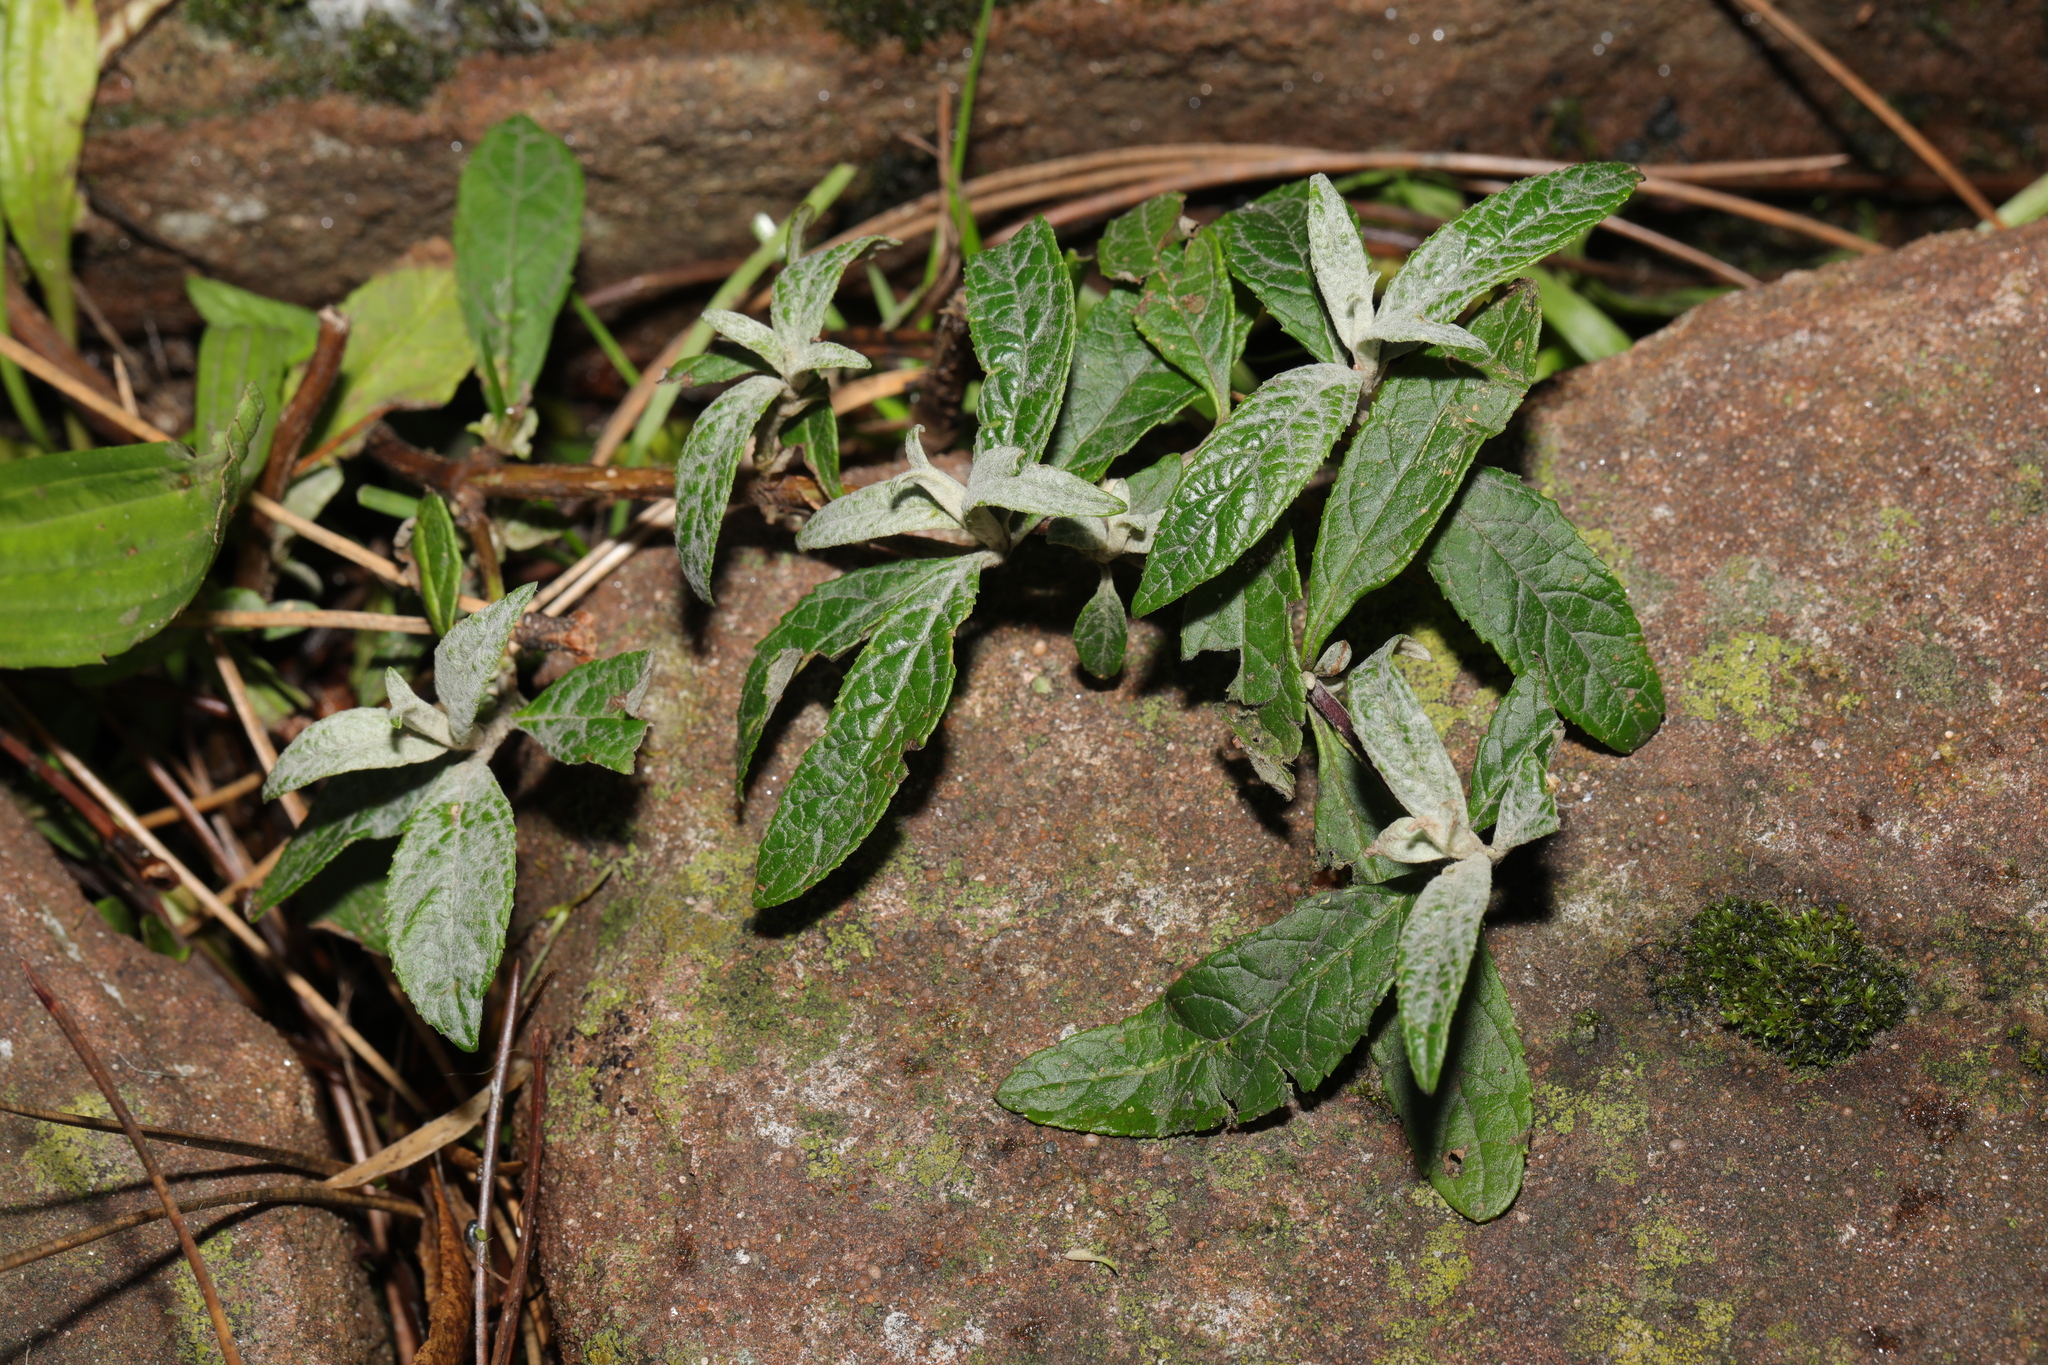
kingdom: Plantae
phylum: Tracheophyta
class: Magnoliopsida
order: Lamiales
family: Scrophulariaceae
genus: Buddleja
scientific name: Buddleja davidii
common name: Butterfly-bush
